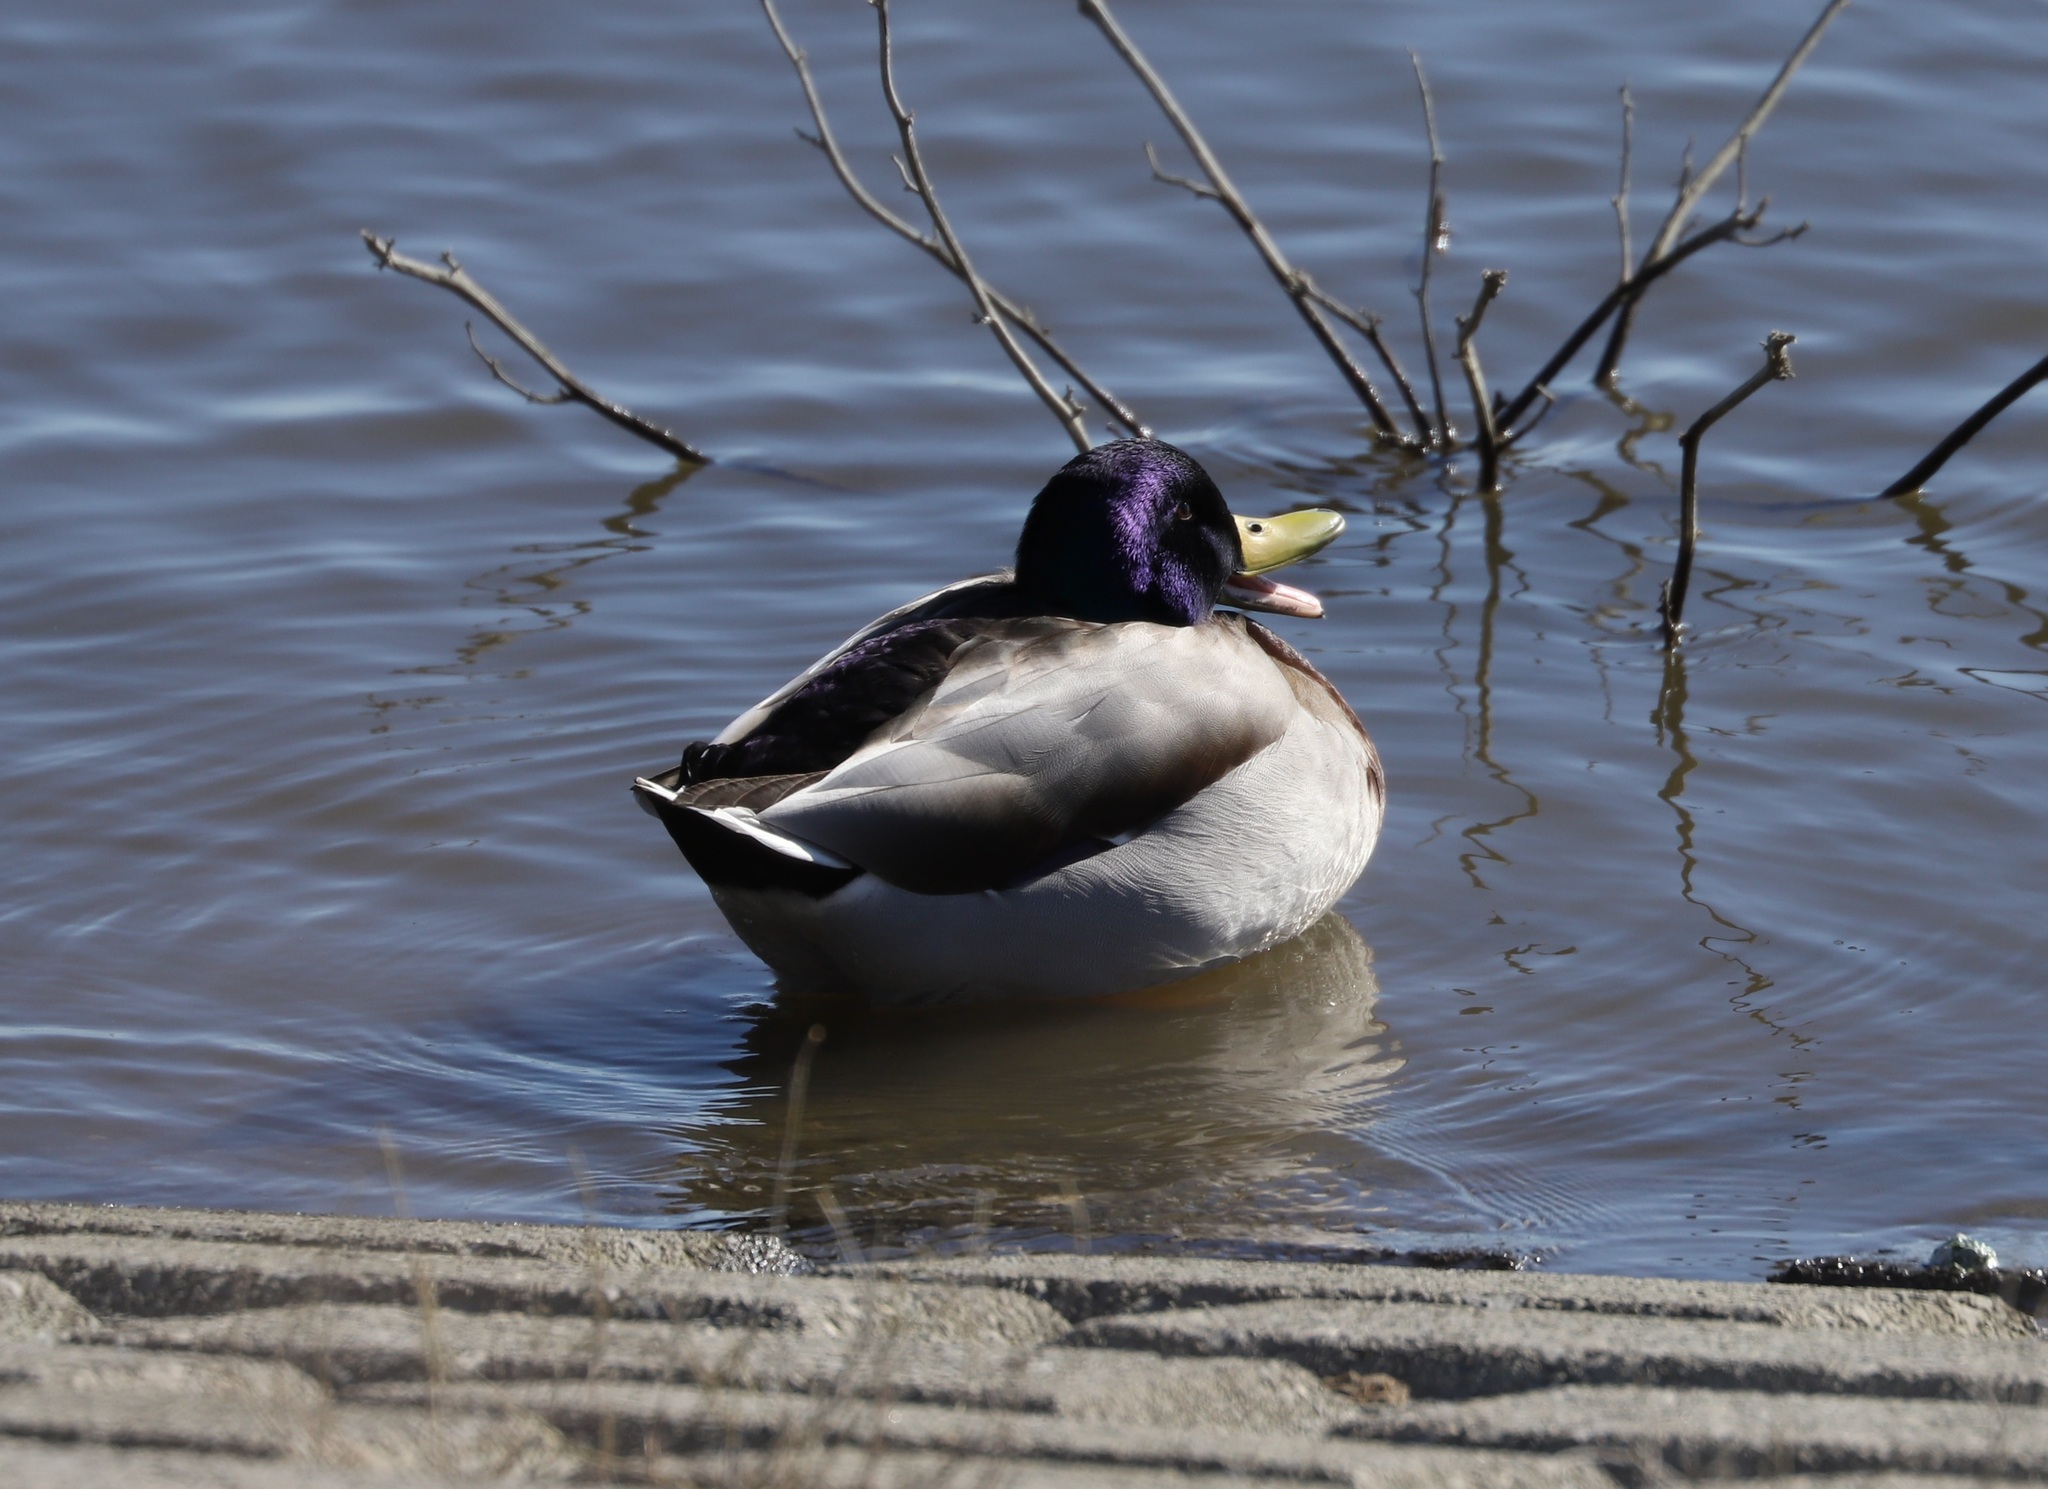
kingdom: Animalia
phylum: Chordata
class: Aves
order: Anseriformes
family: Anatidae
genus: Anas
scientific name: Anas platyrhynchos
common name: Mallard
